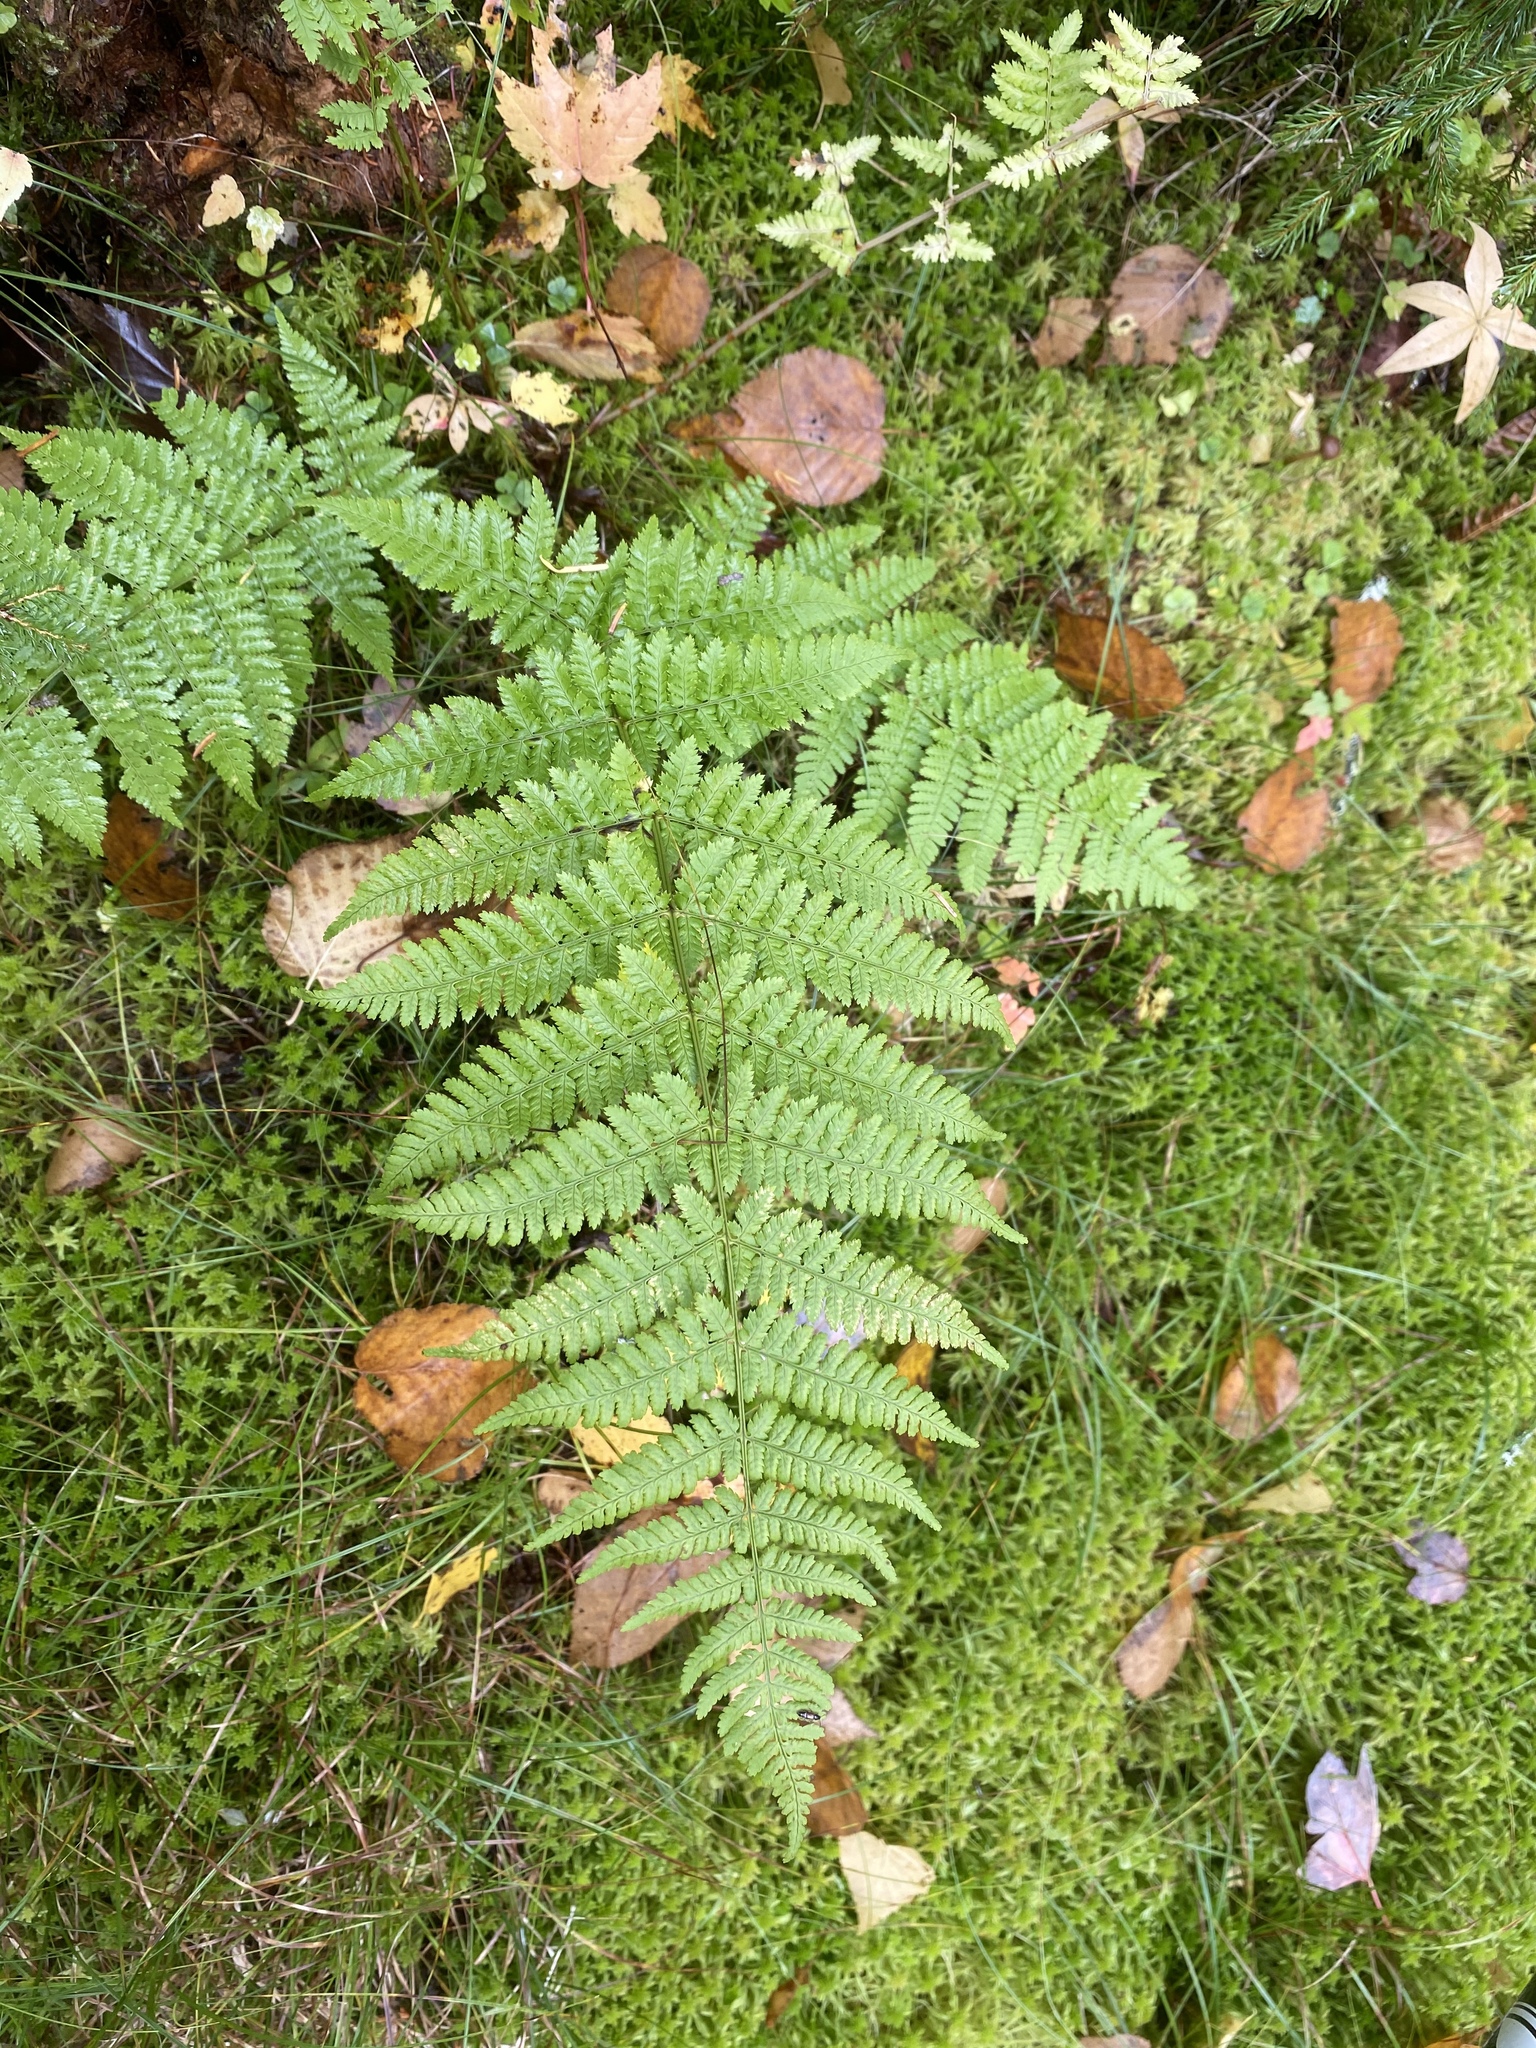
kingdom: Plantae
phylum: Tracheophyta
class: Polypodiopsida
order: Polypodiales
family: Dryopteridaceae
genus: Dryopteris
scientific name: Dryopteris intermedia
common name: Evergreen wood fern
